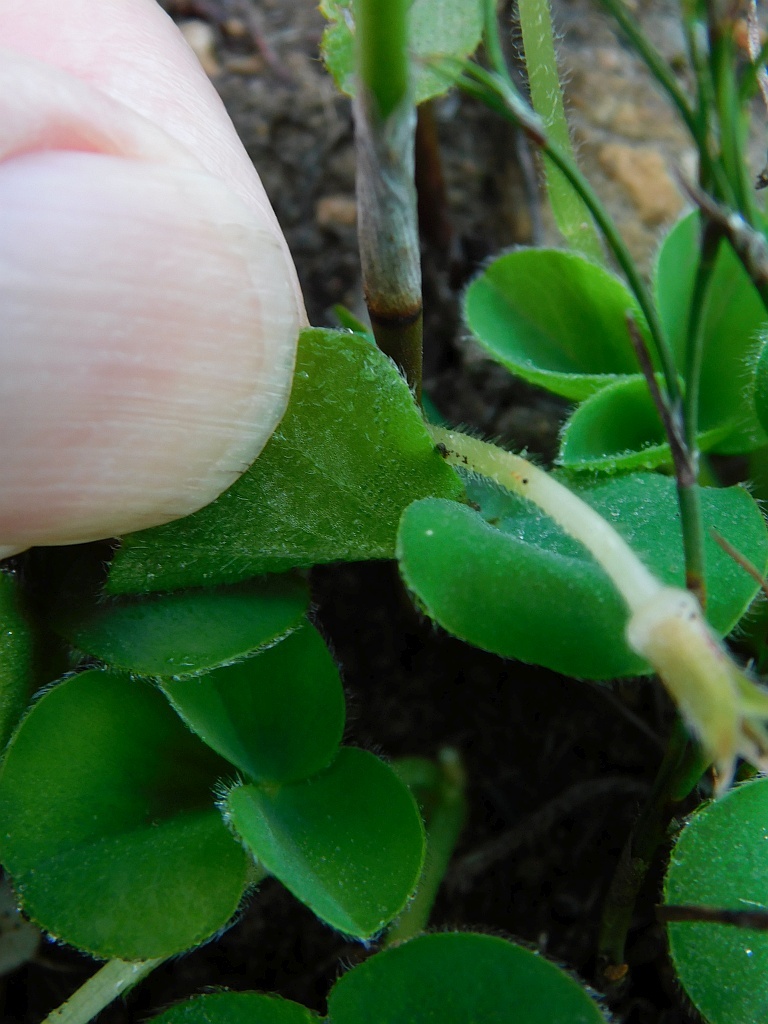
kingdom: Plantae
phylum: Tracheophyta
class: Magnoliopsida
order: Oxalidales
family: Oxalidaceae
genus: Oxalis
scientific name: Oxalis purpurea
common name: Purple woodsorrel
